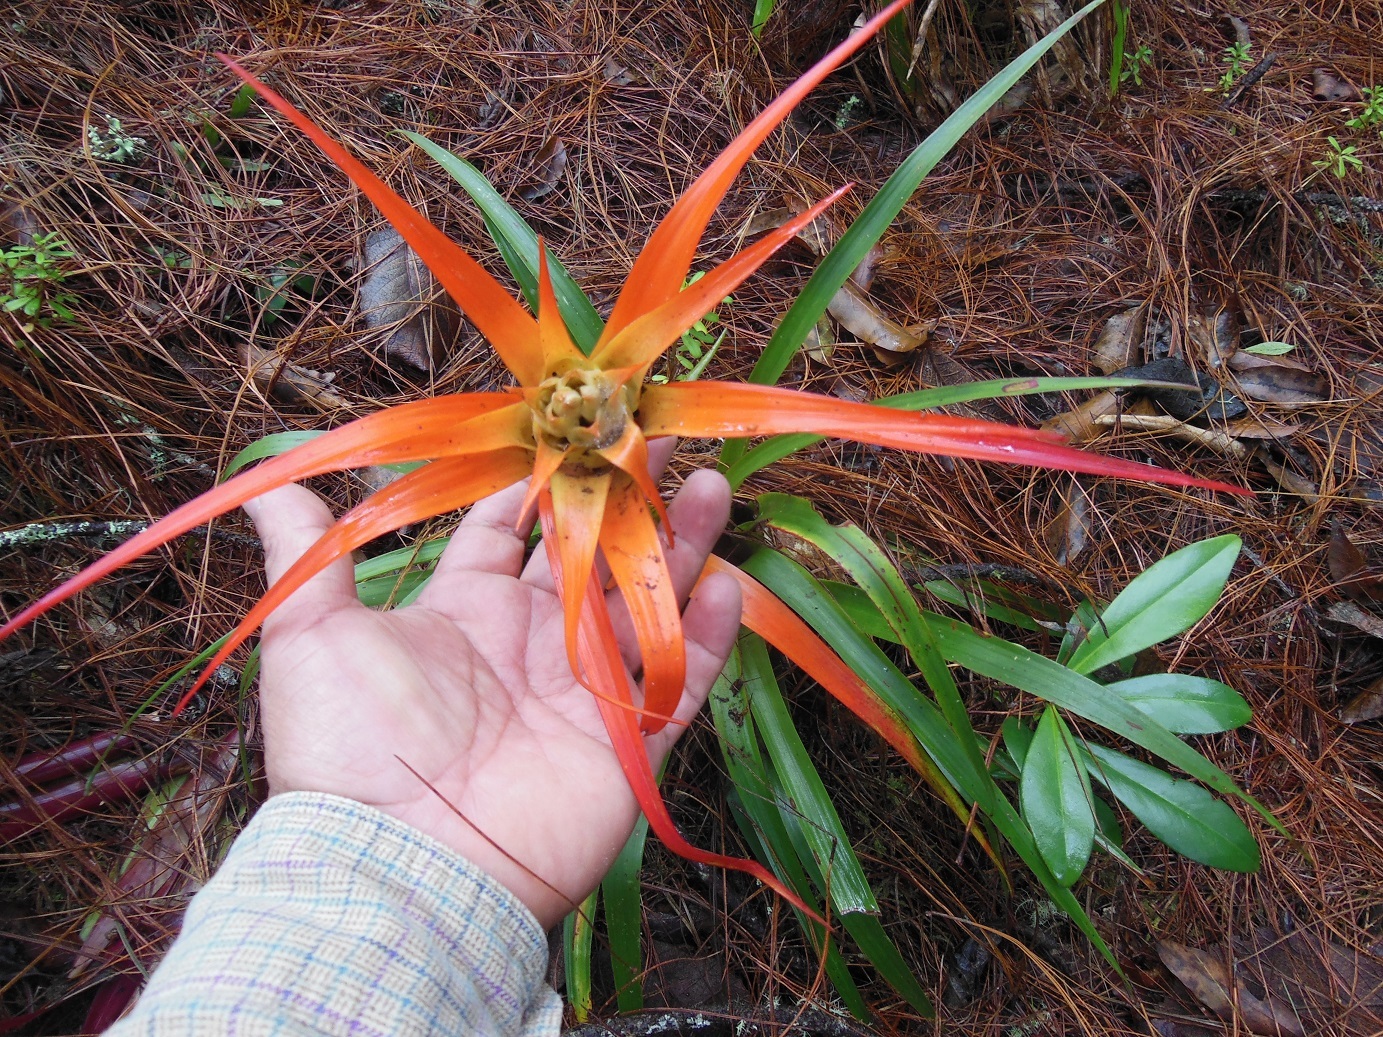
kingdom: Plantae
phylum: Tracheophyta
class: Liliopsida
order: Poales
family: Bromeliaceae
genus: Tillandsia
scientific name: Tillandsia lautneri
